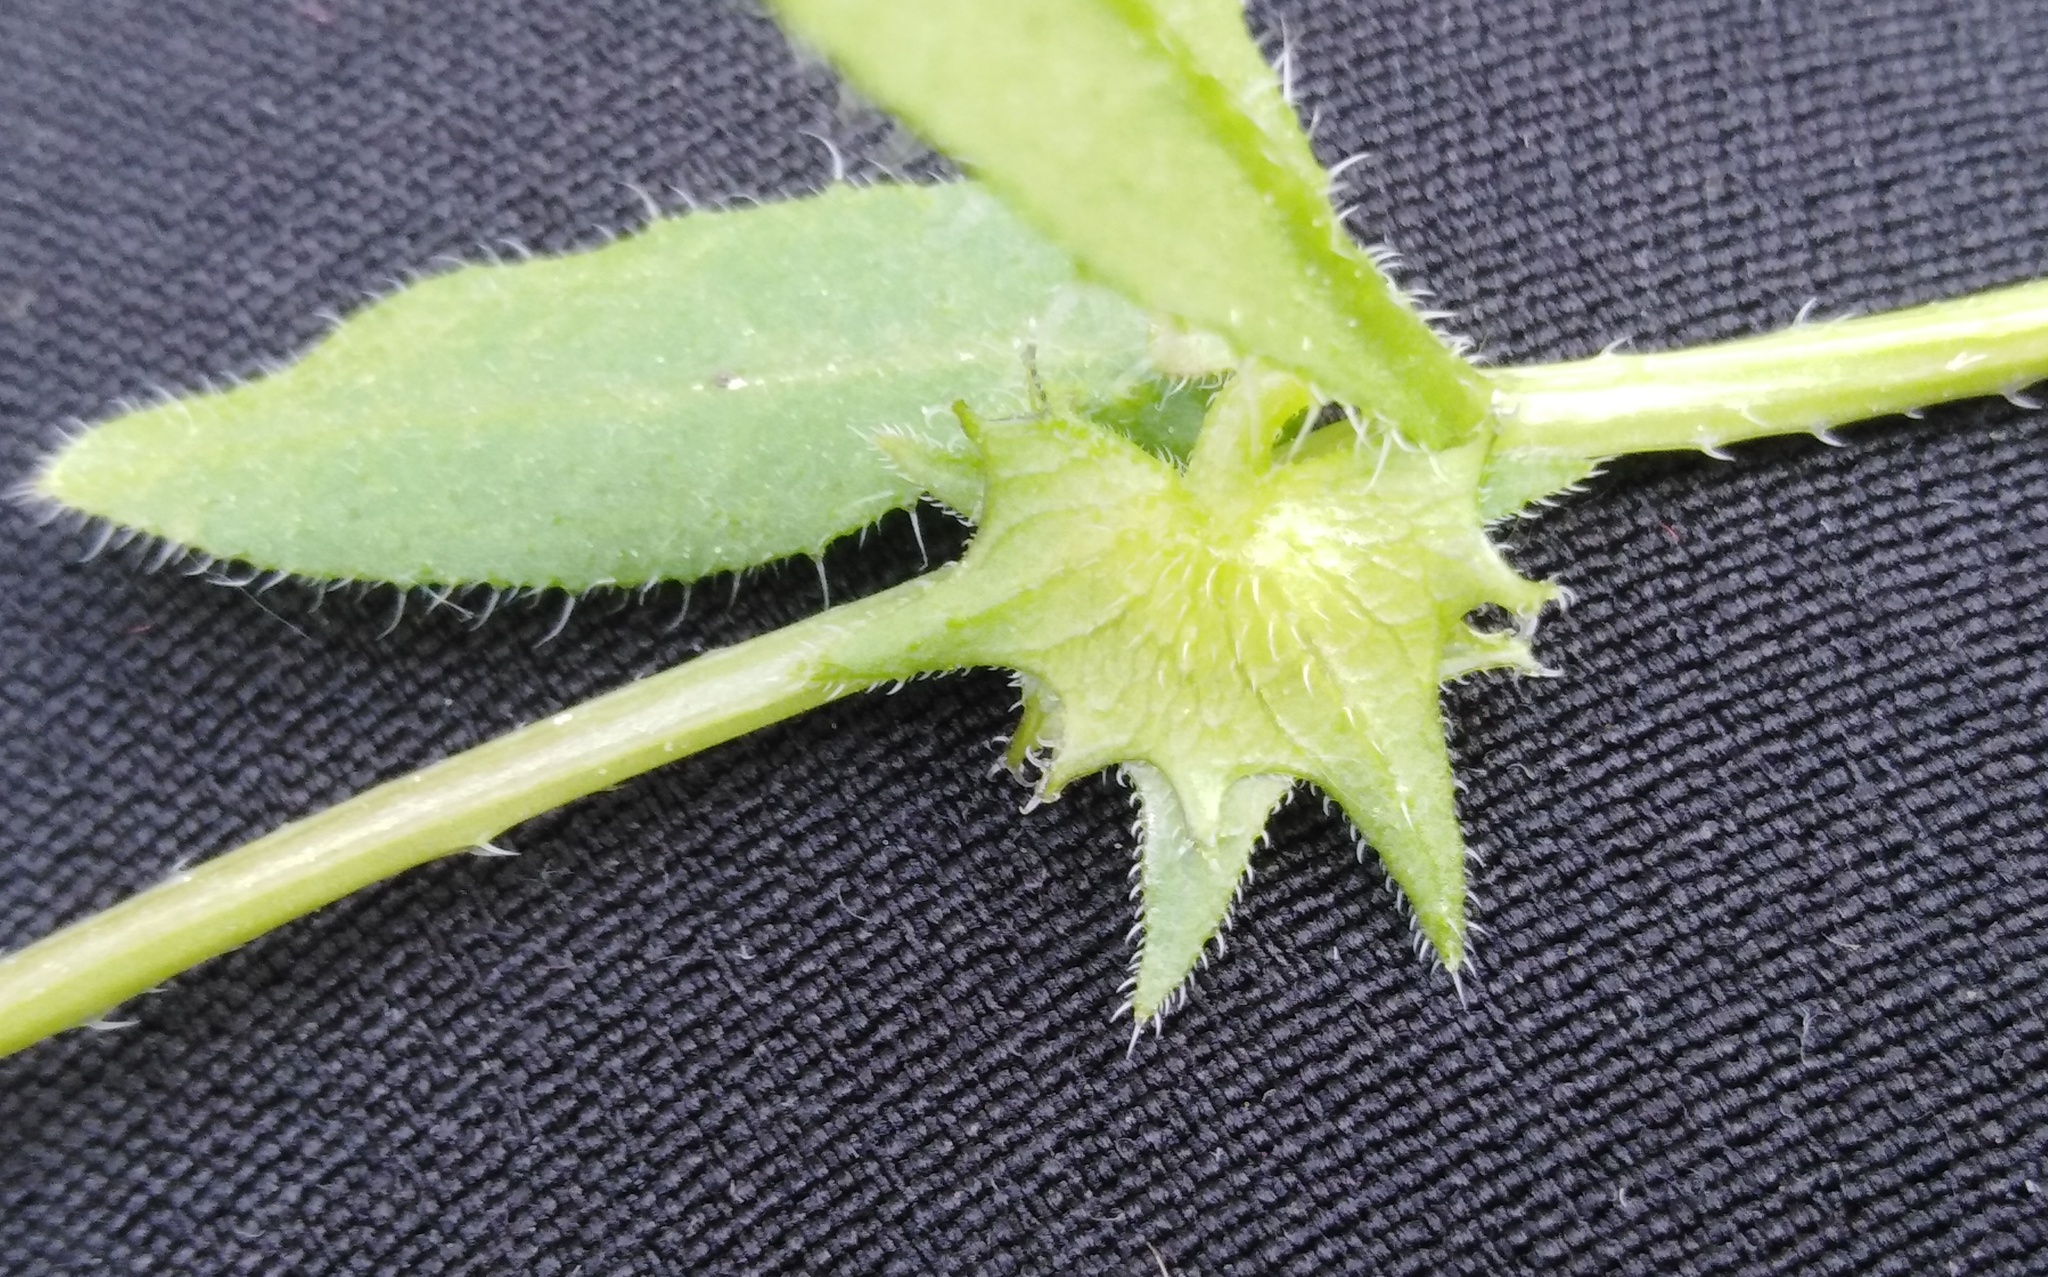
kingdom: Plantae
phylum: Tracheophyta
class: Magnoliopsida
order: Boraginales
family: Boraginaceae
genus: Asperugo
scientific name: Asperugo procumbens
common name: Madwort
